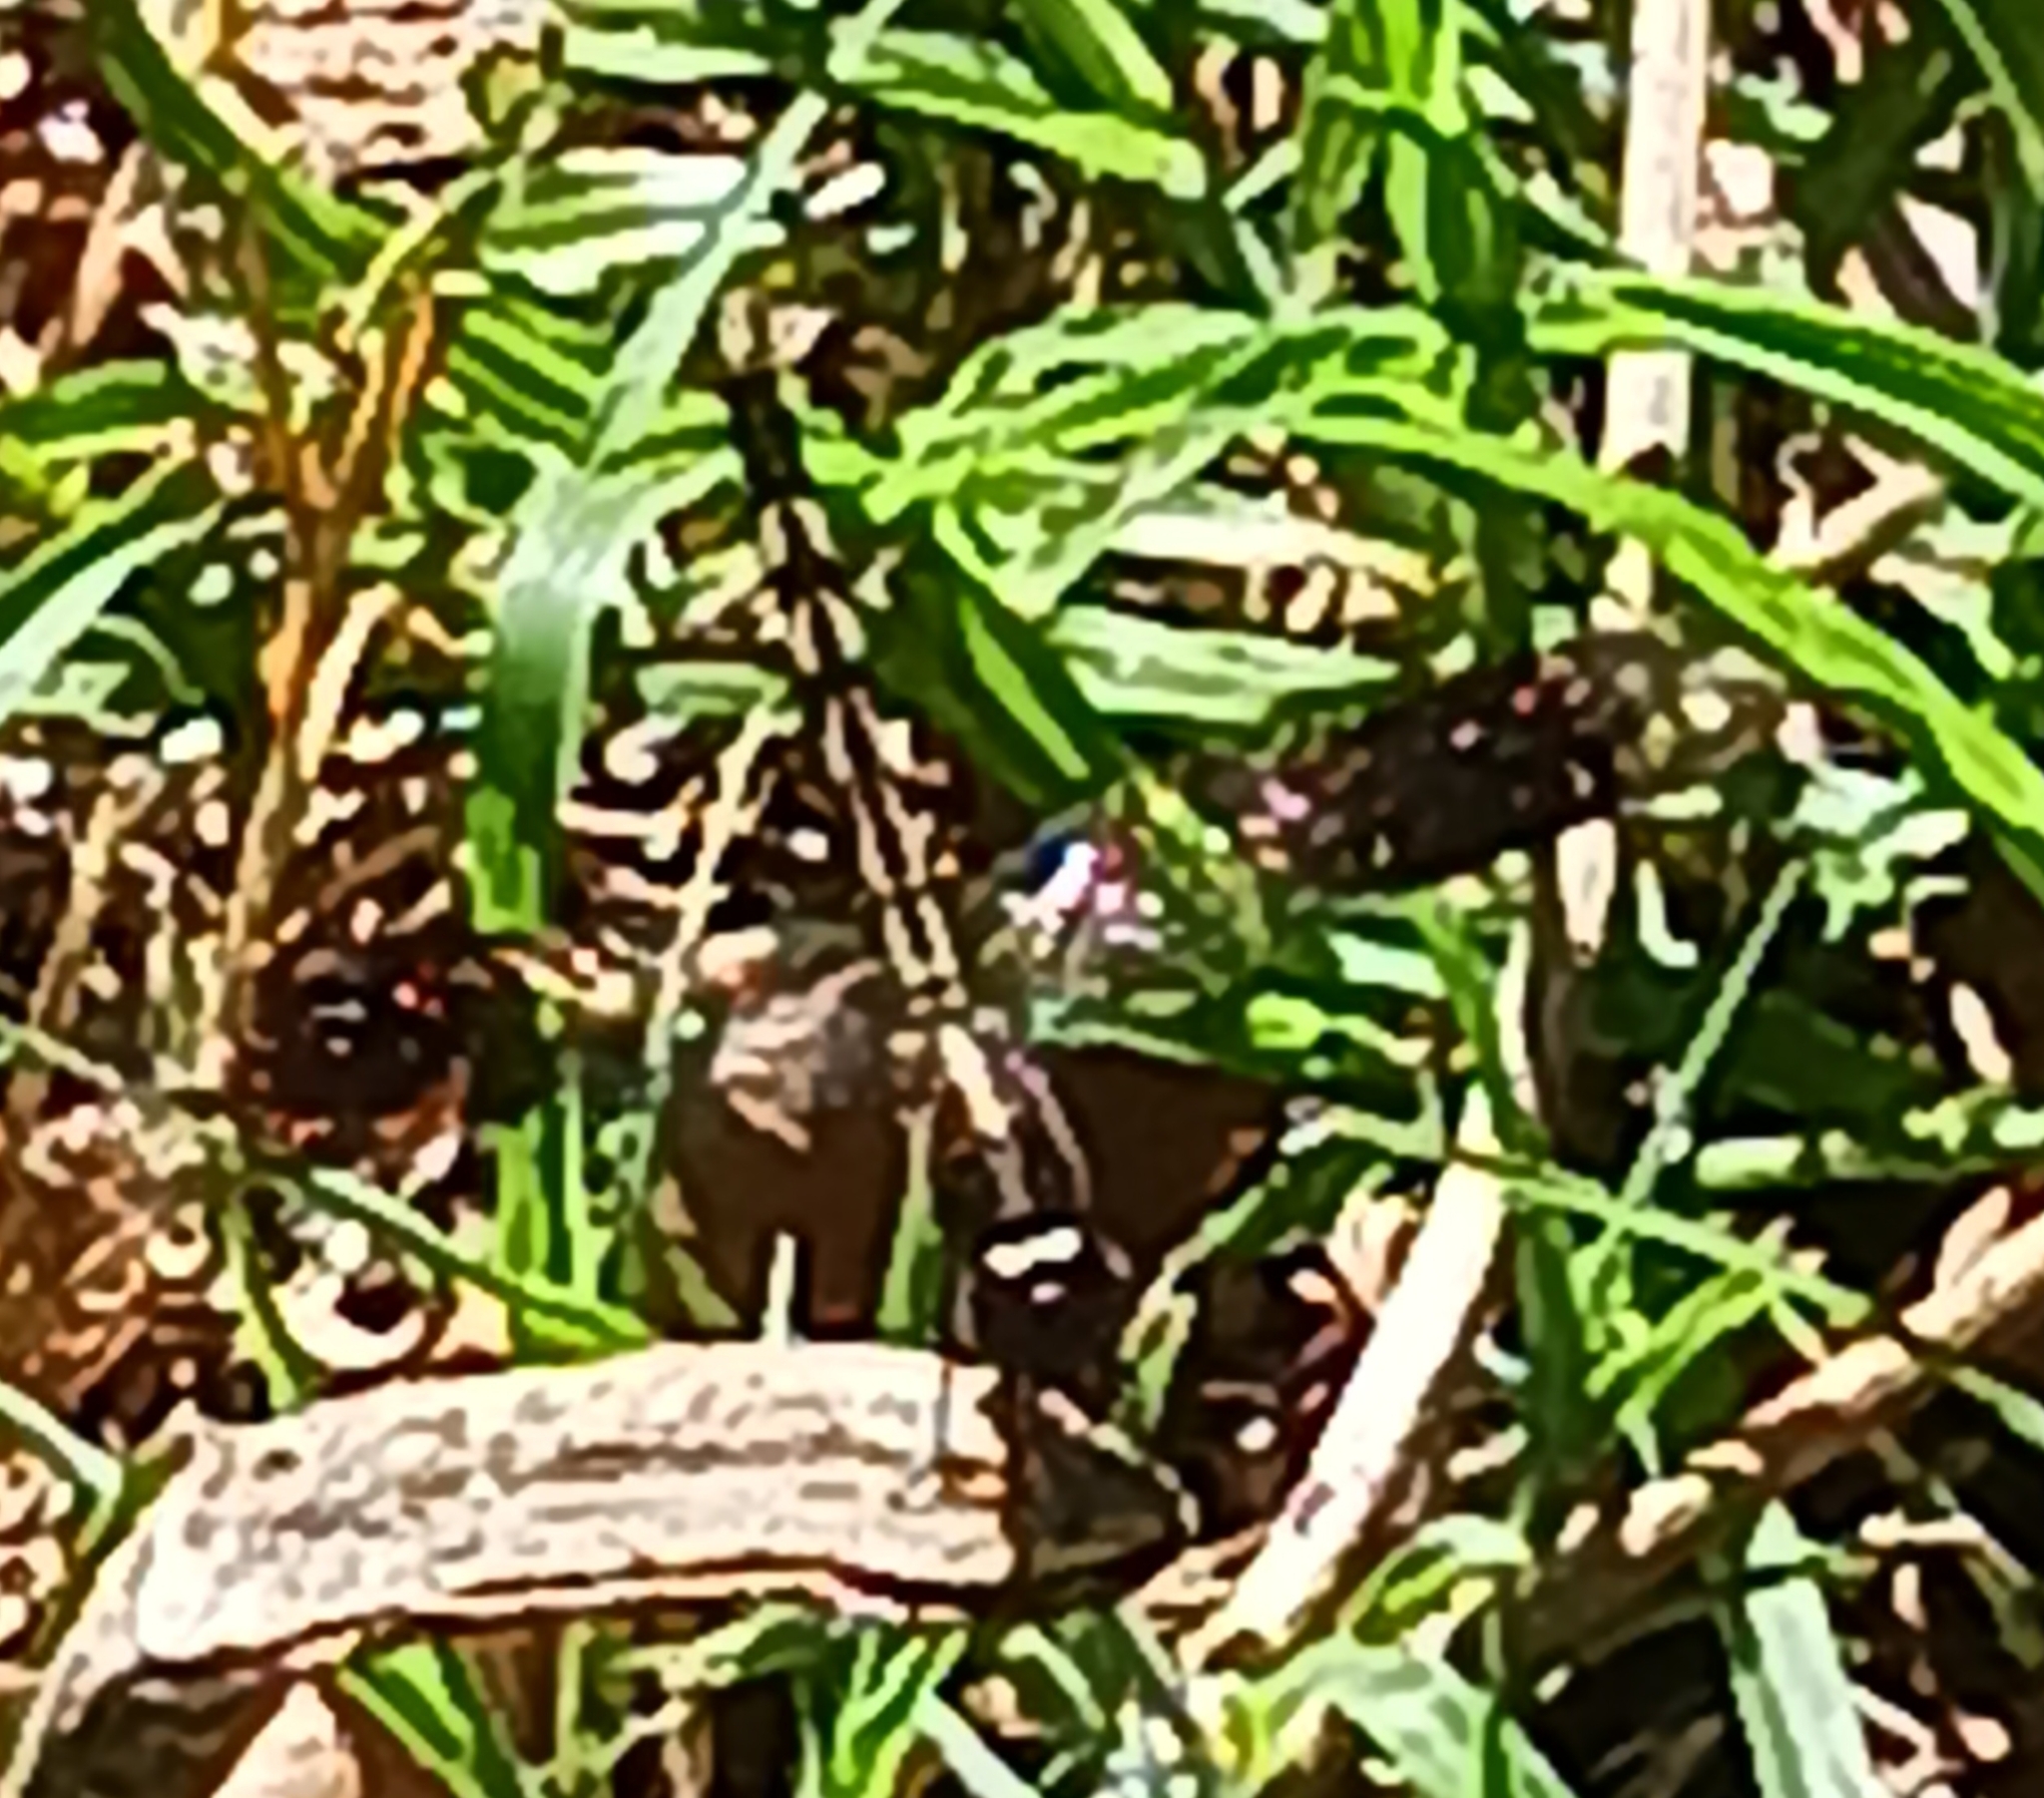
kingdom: Animalia
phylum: Arthropoda
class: Insecta
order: Odonata
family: Libellulidae
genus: Erythrodiplax
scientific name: Erythrodiplax umbrata
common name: Band-winged dragonlet
